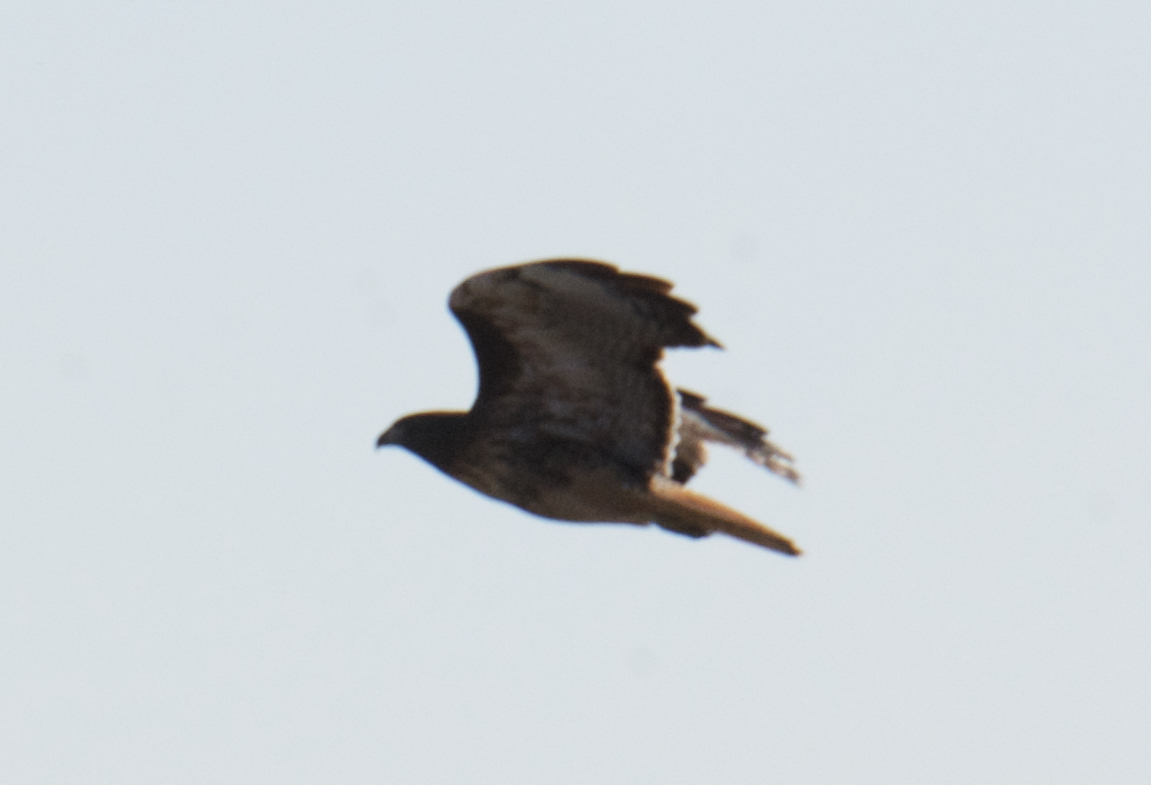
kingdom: Animalia
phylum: Chordata
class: Aves
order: Accipitriformes
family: Accipitridae
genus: Buteo
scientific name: Buteo jamaicensis
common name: Red-tailed hawk
